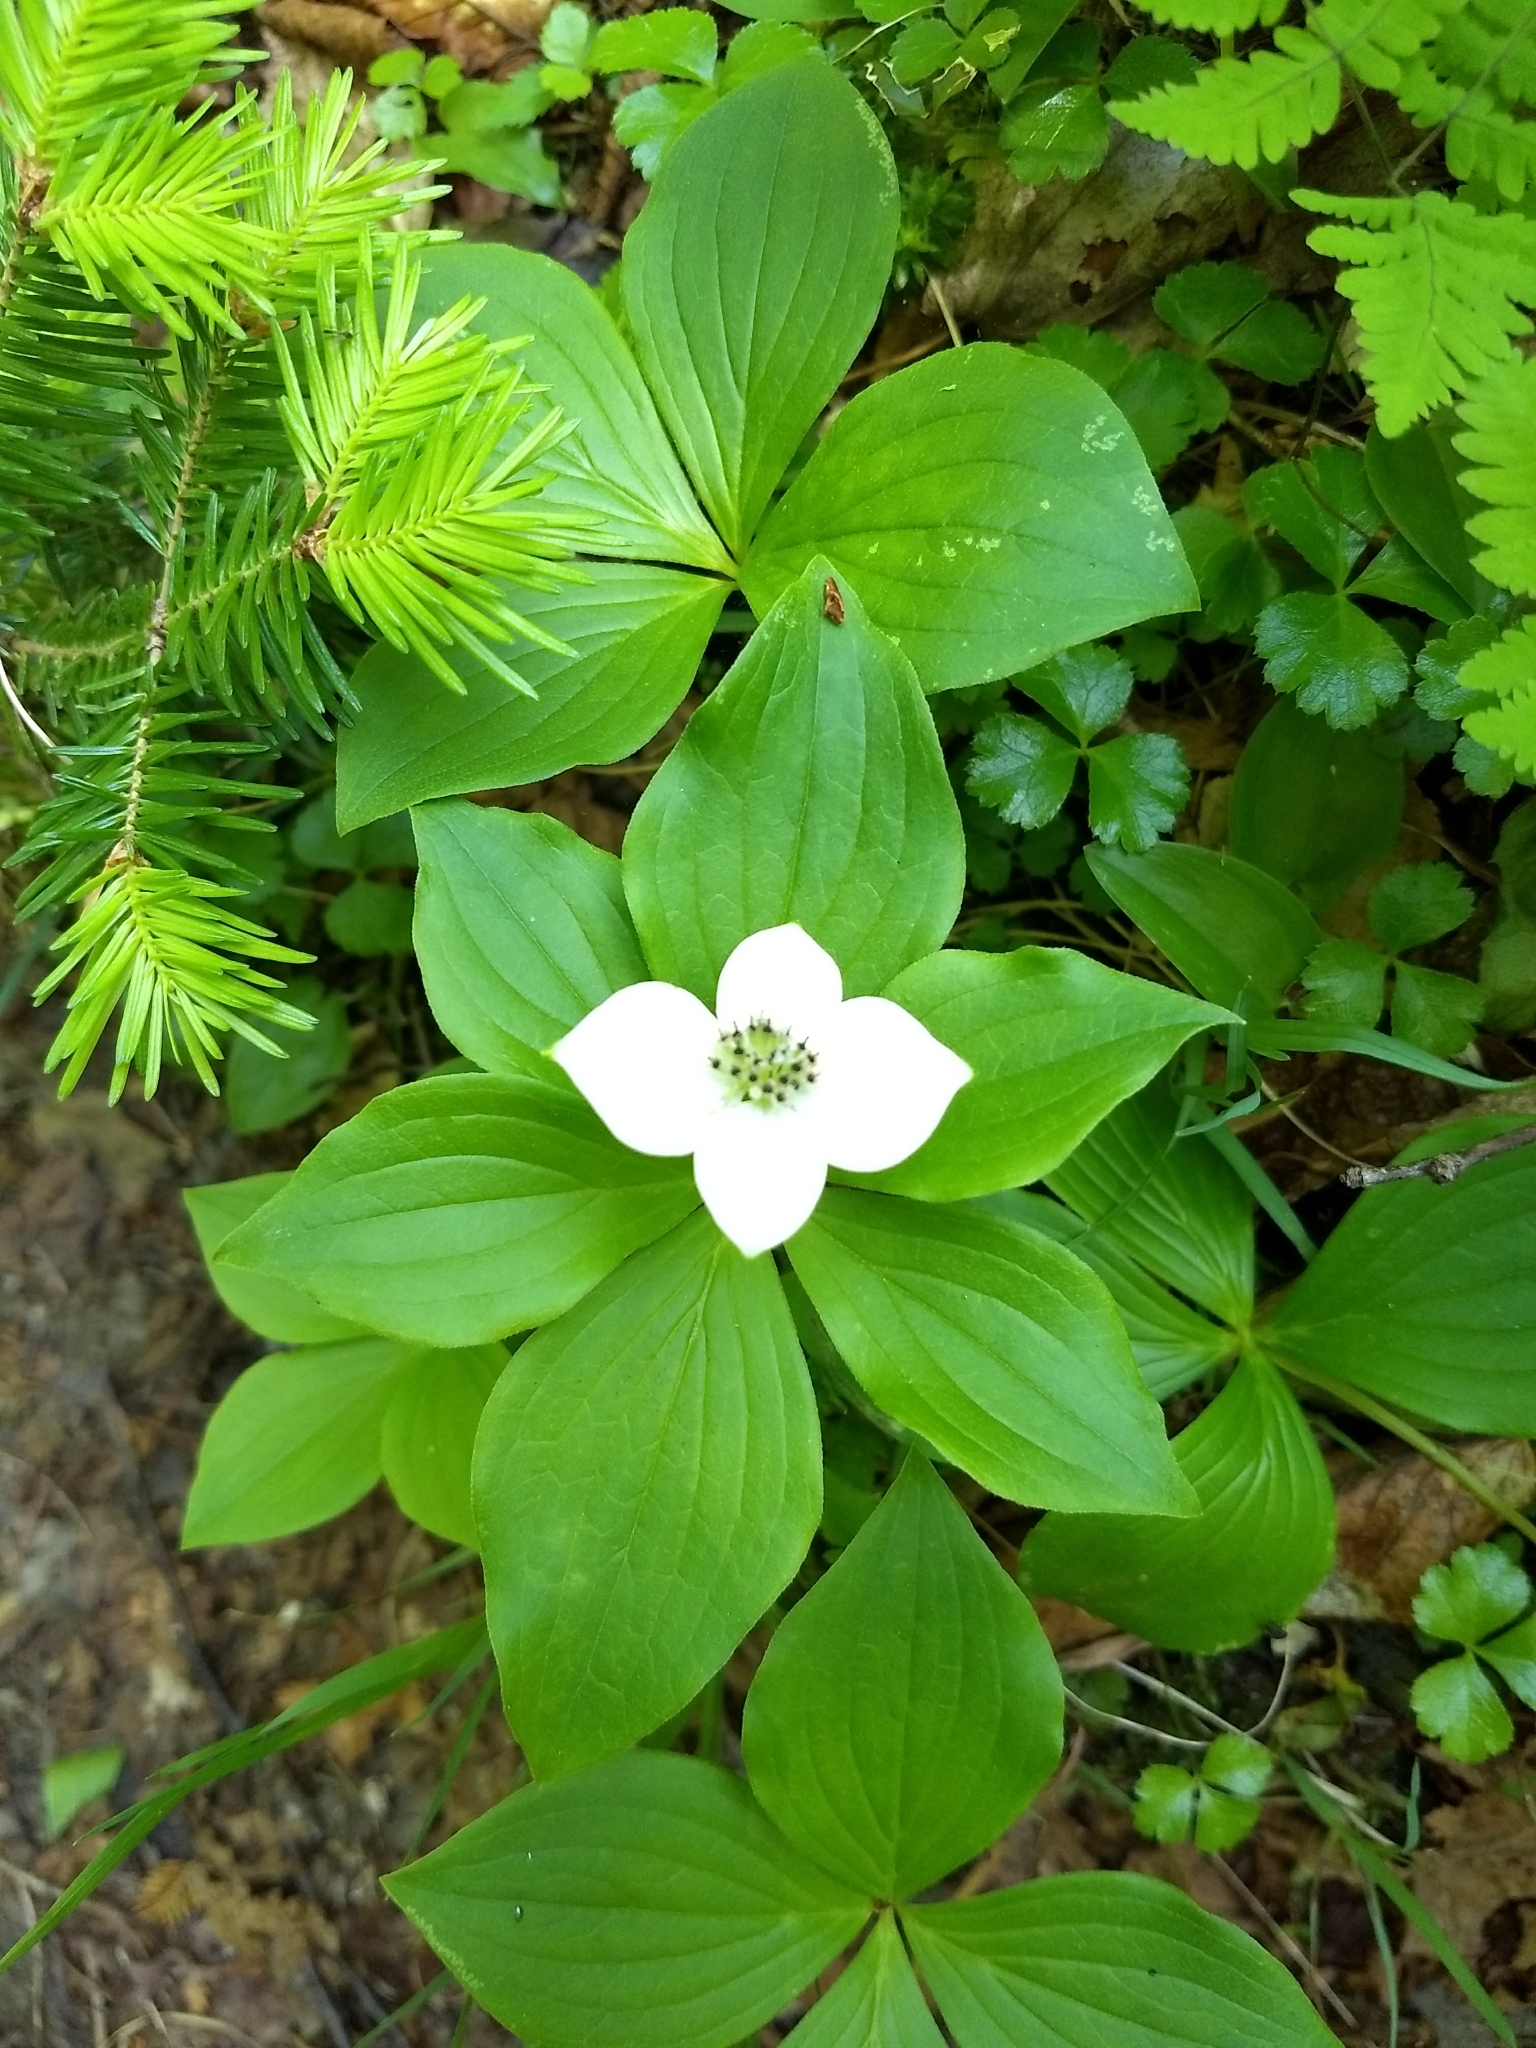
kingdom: Plantae
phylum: Tracheophyta
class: Magnoliopsida
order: Cornales
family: Cornaceae
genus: Cornus
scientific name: Cornus canadensis
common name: Creeping dogwood
